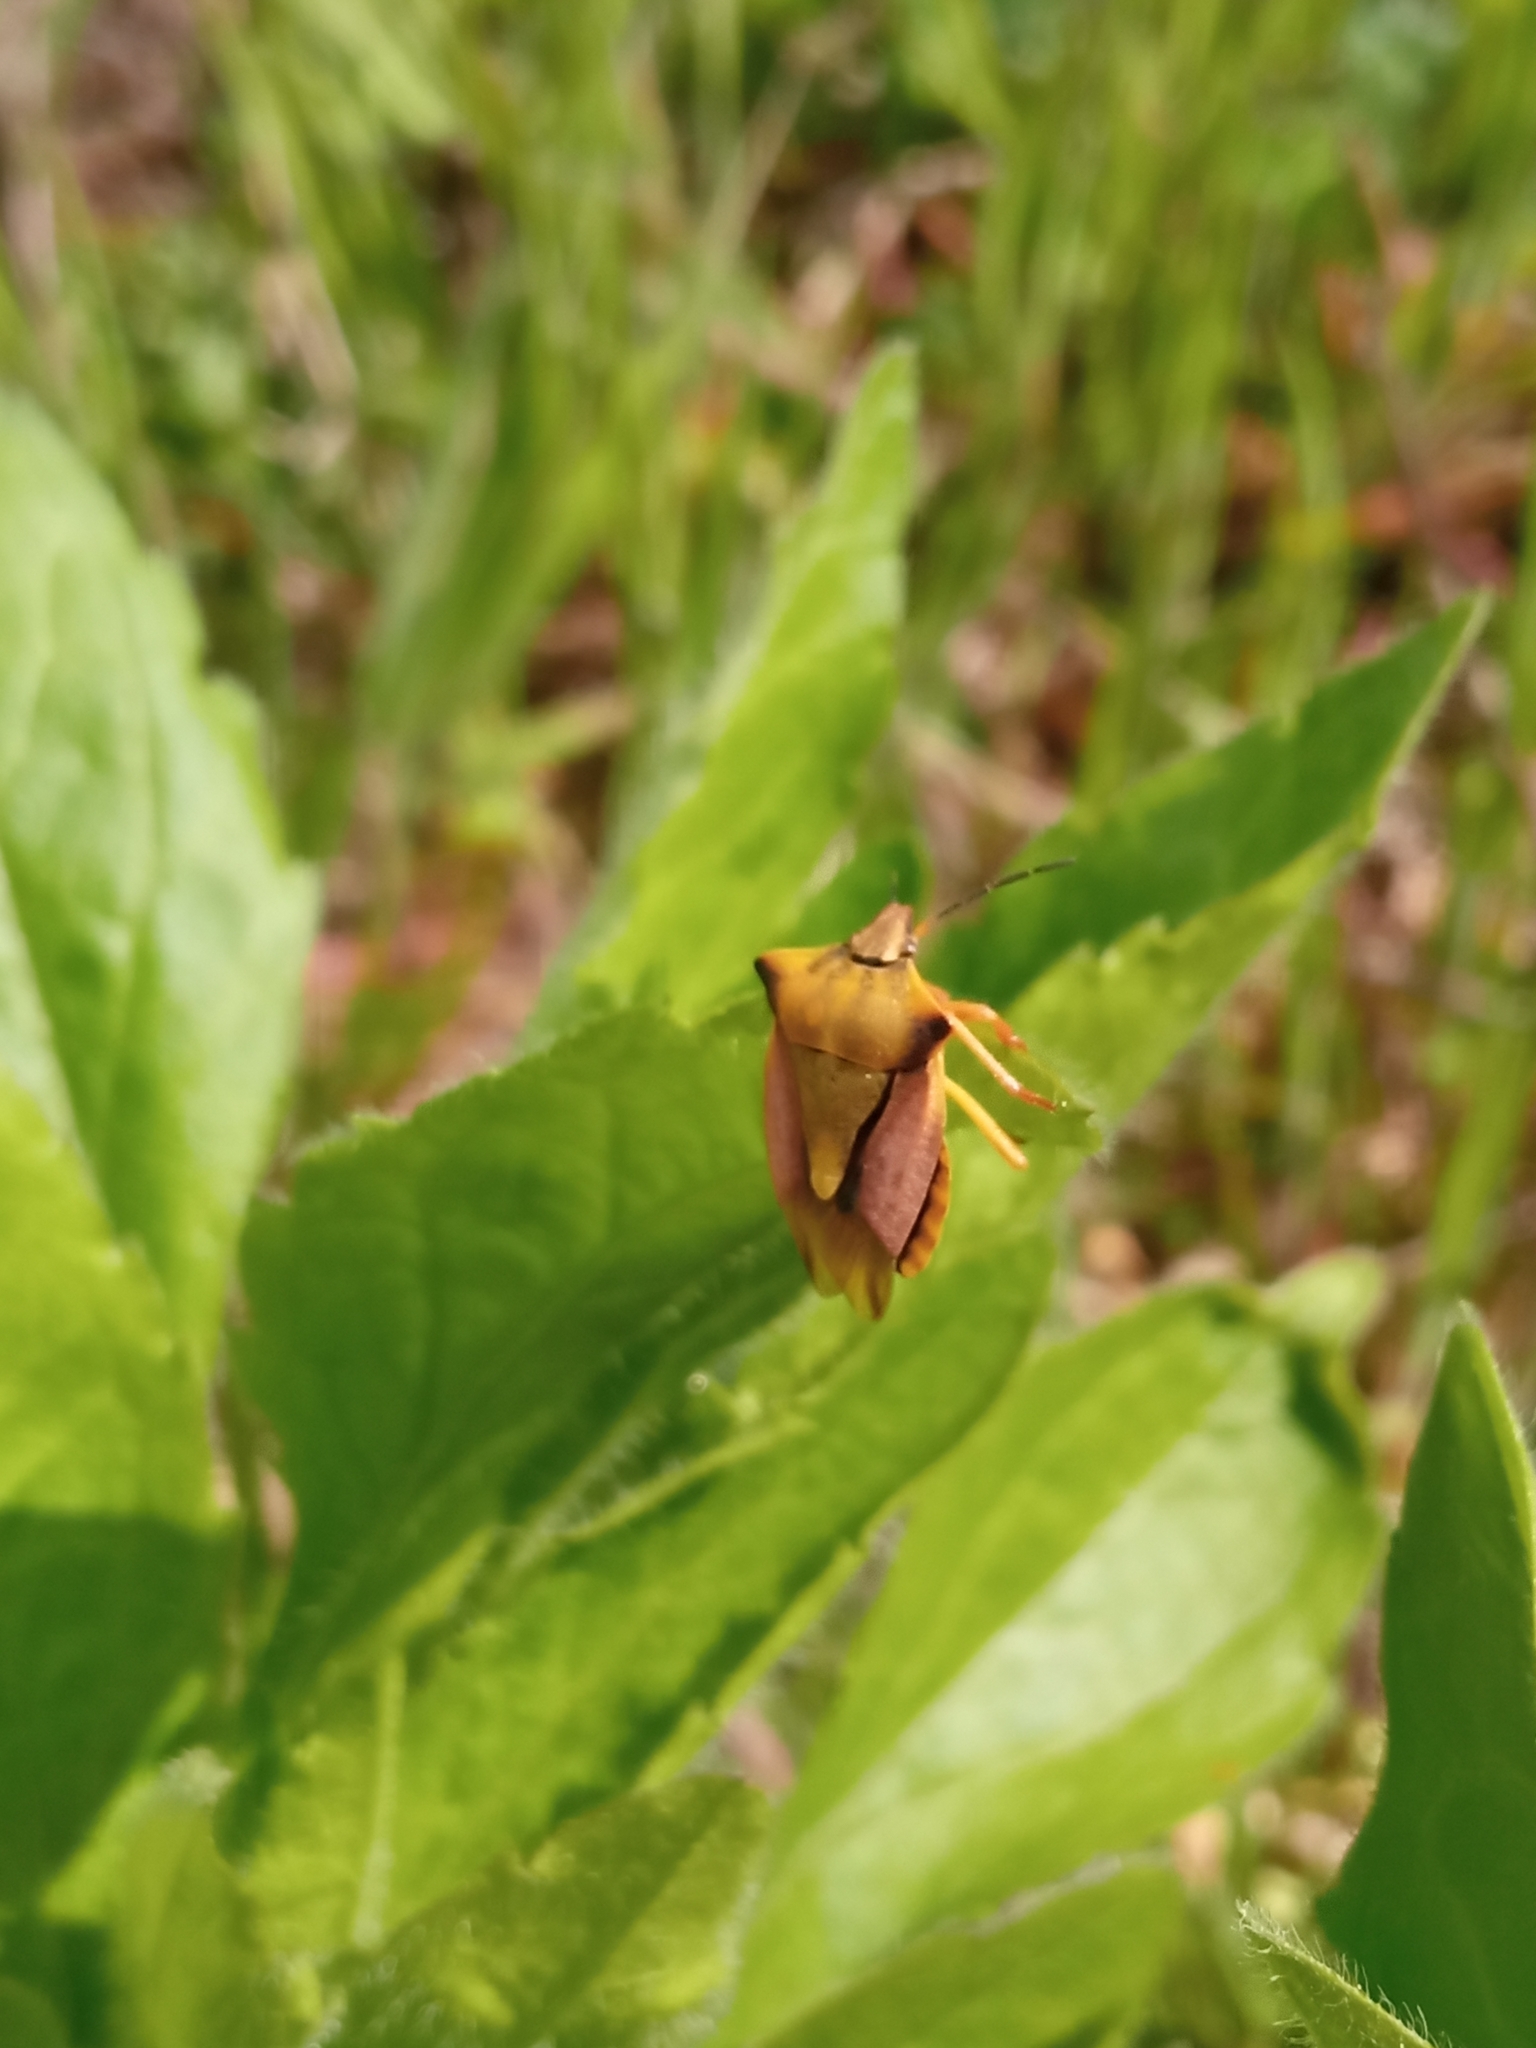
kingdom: Animalia
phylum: Arthropoda
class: Insecta
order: Hemiptera
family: Pentatomidae
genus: Carpocoris
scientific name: Carpocoris fuscispinus
